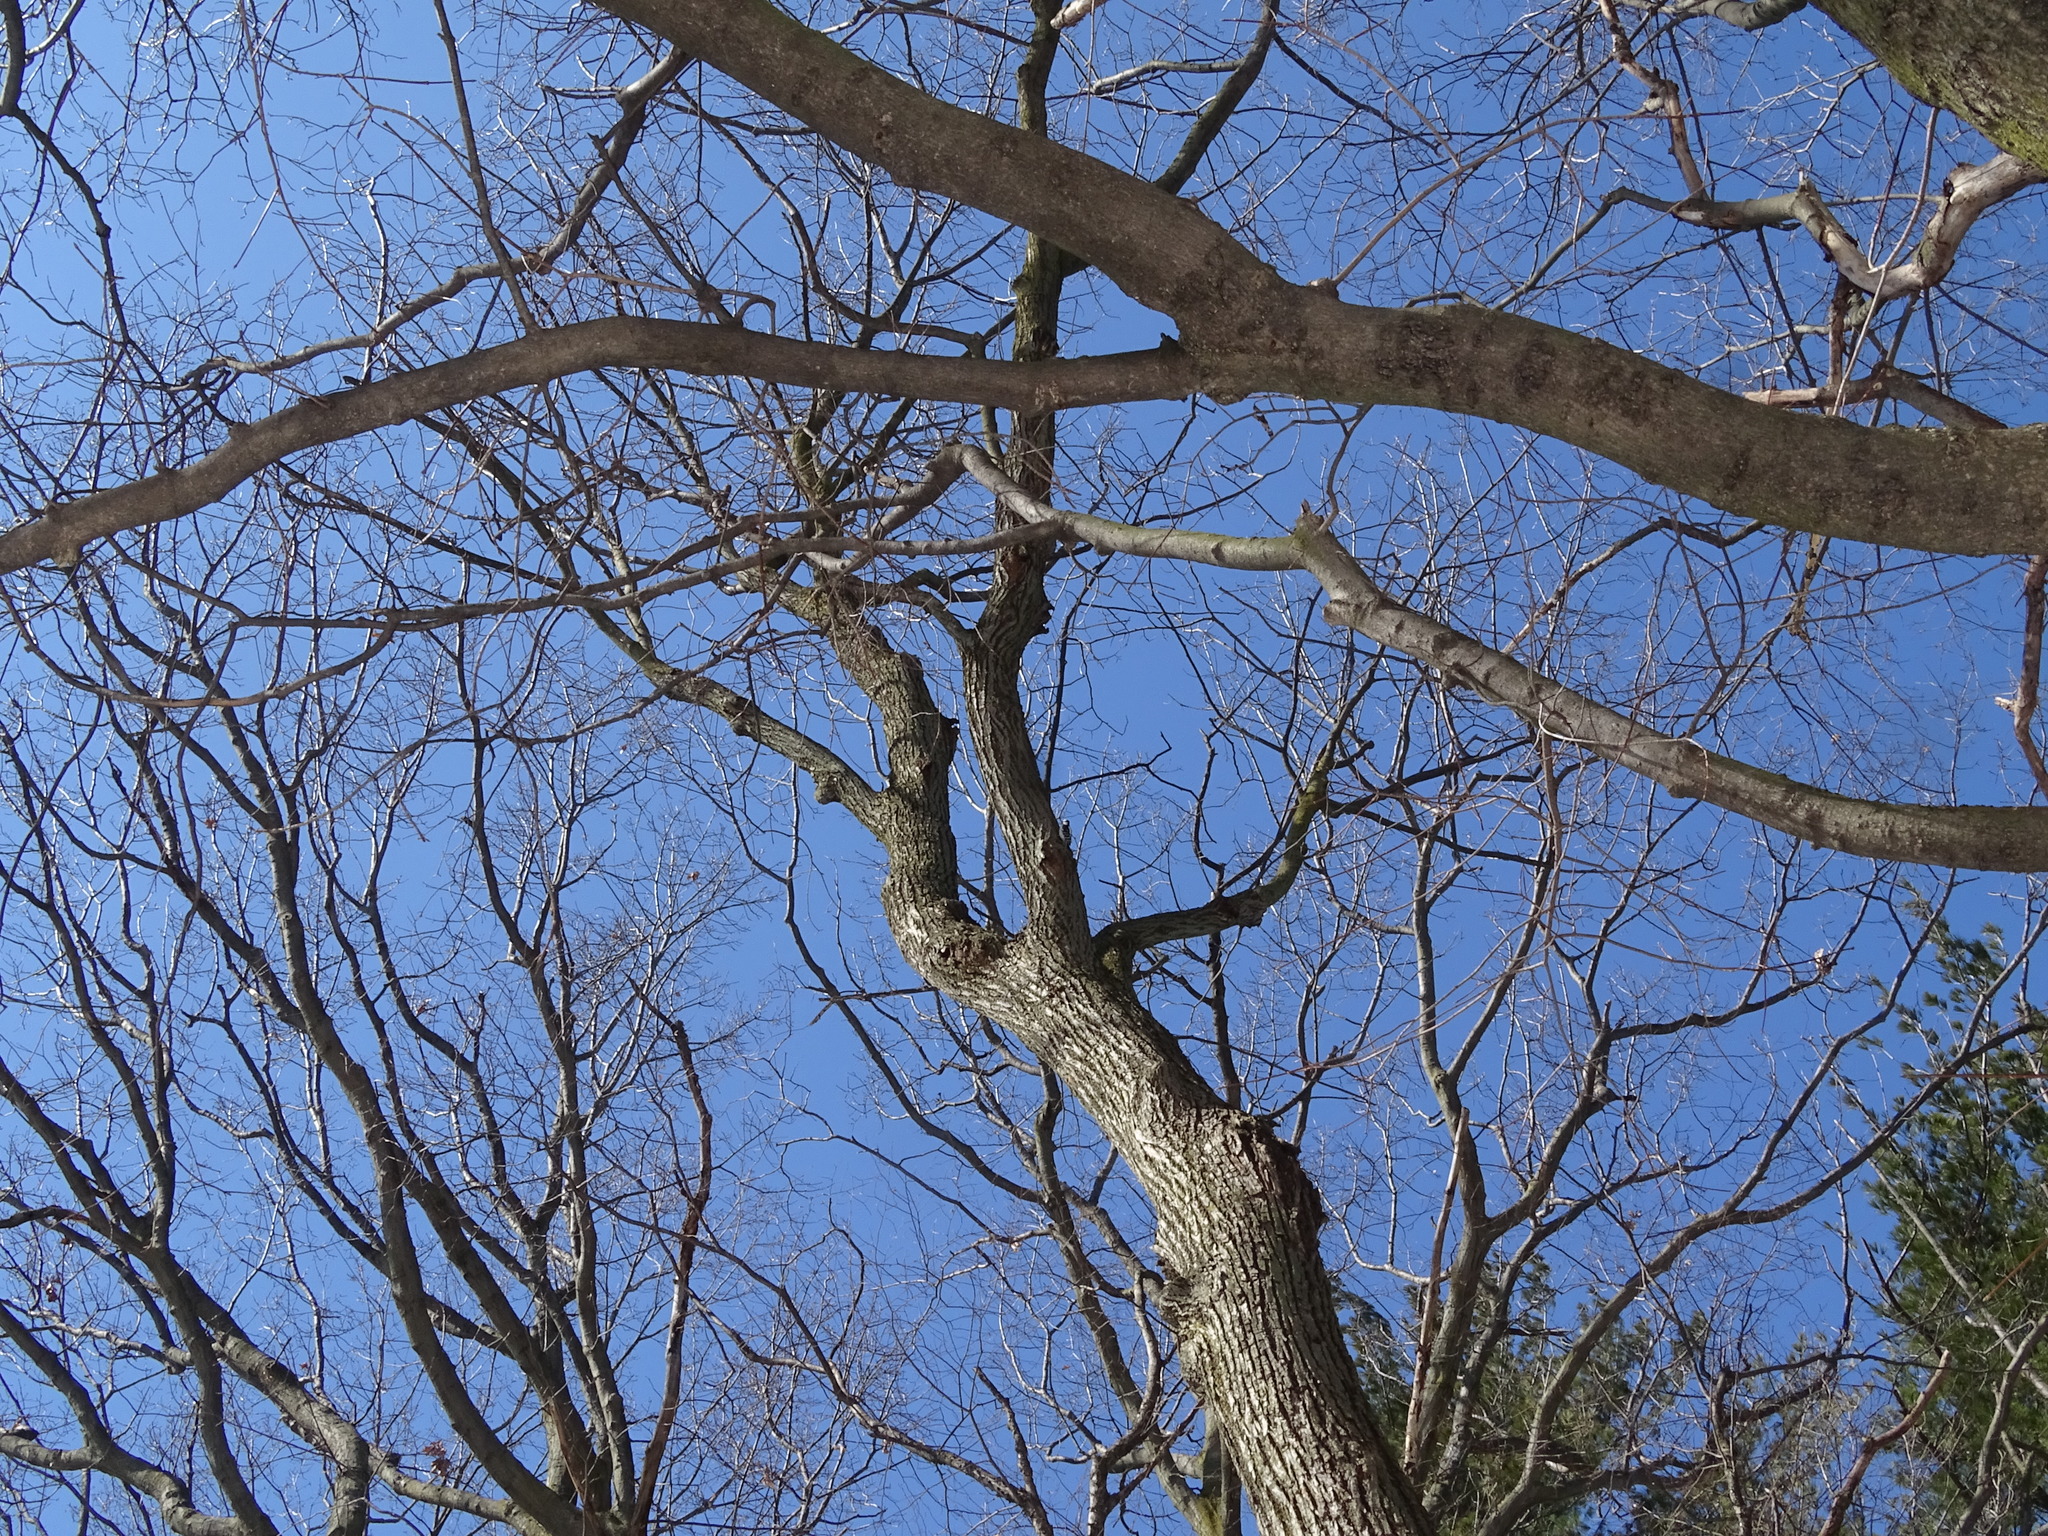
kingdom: Plantae
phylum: Tracheophyta
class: Magnoliopsida
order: Malvales
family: Malvaceae
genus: Tilia
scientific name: Tilia americana
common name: Basswood
